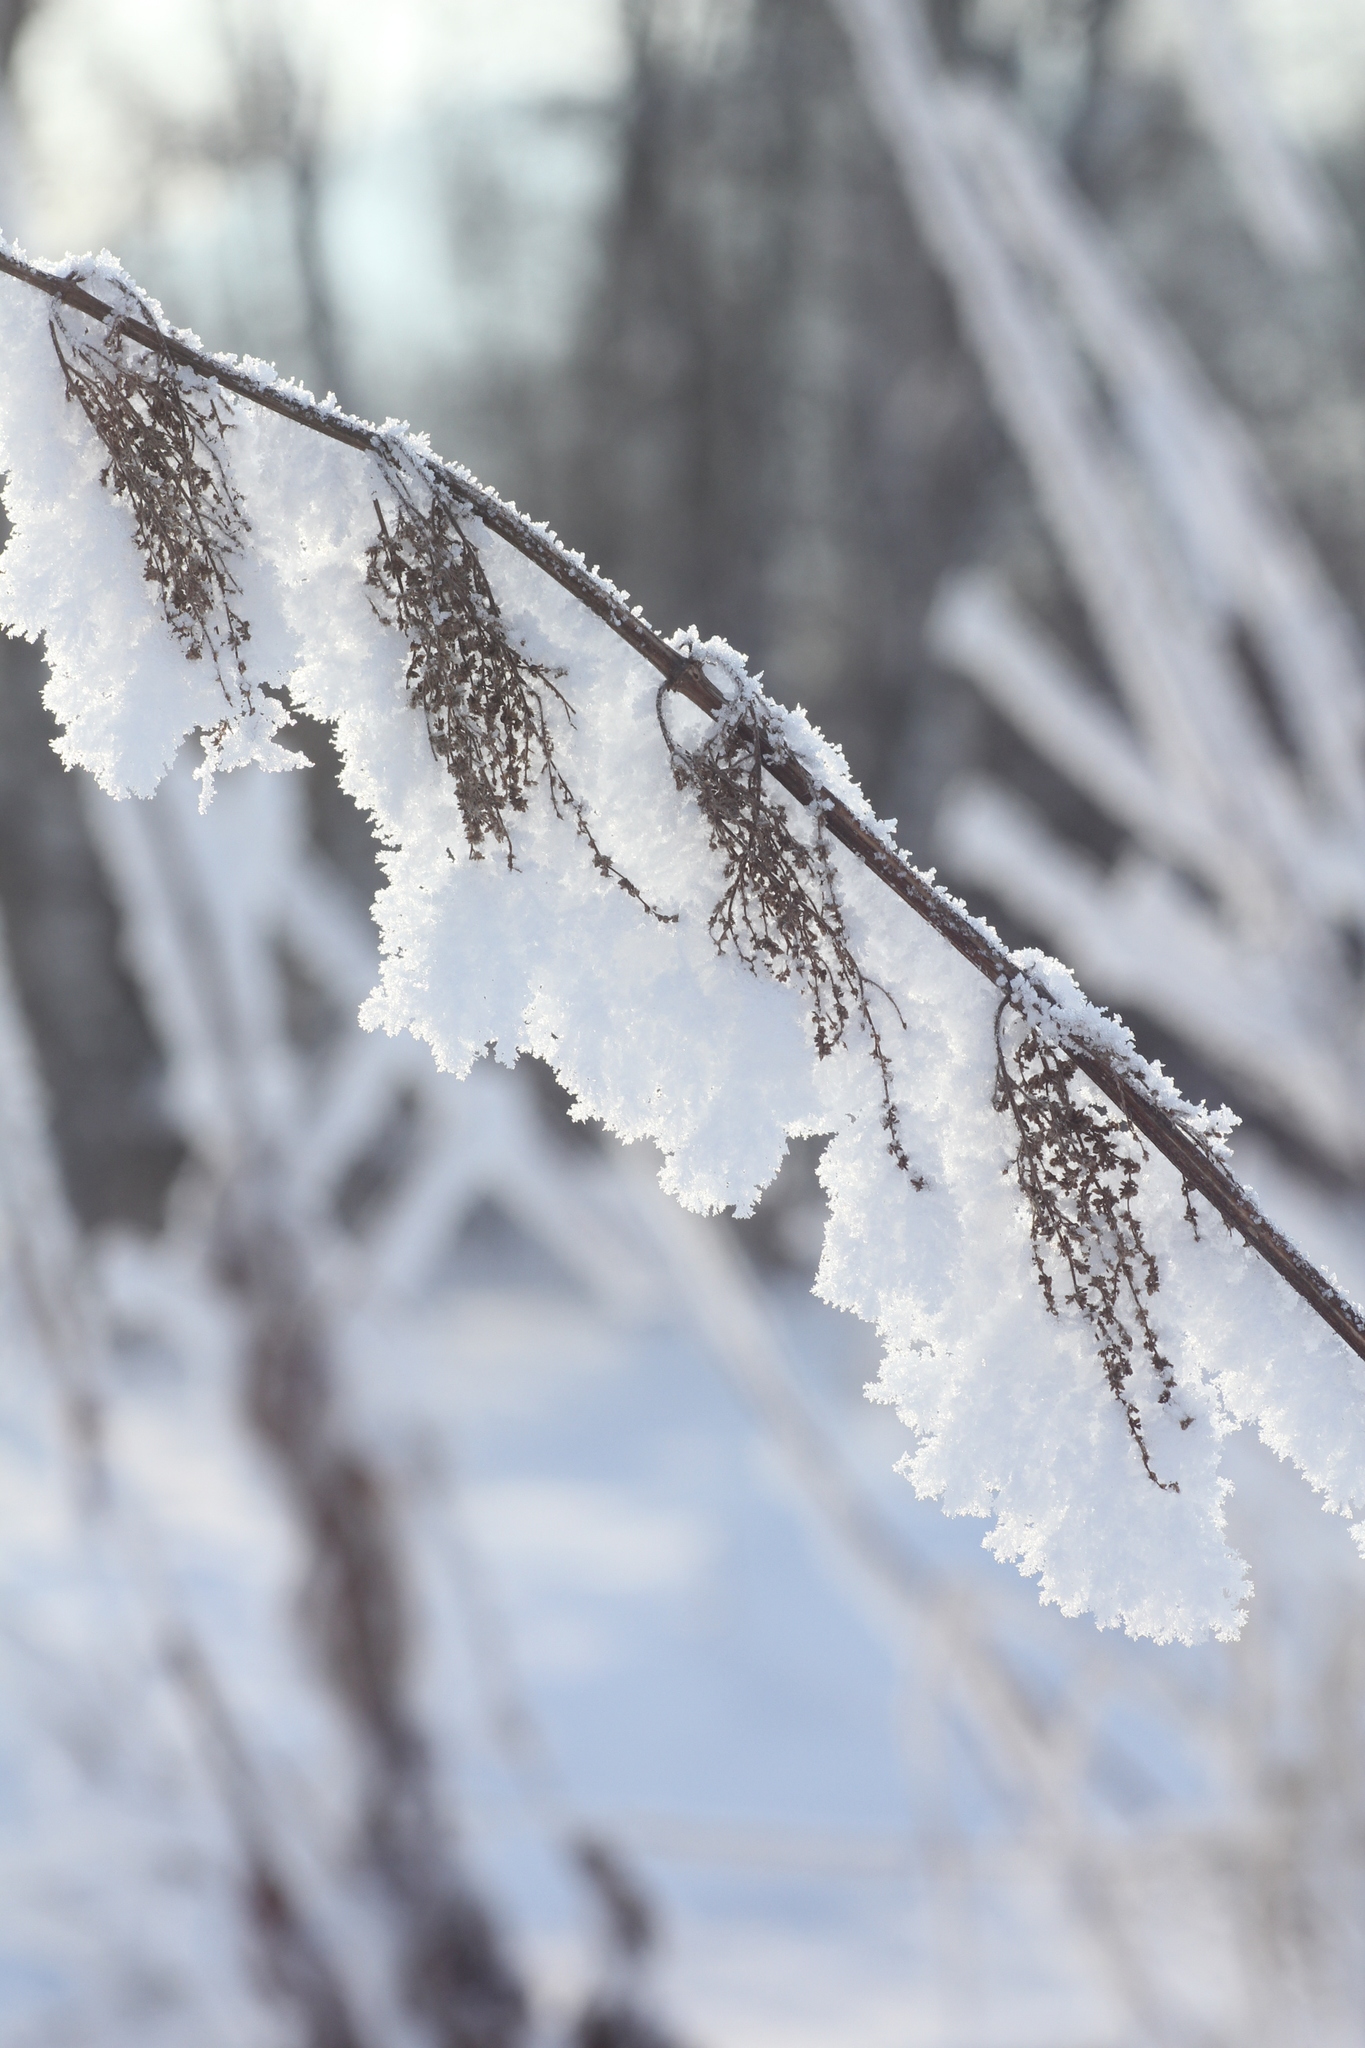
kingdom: Plantae
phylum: Tracheophyta
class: Magnoliopsida
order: Rosales
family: Urticaceae
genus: Urtica
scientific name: Urtica dioica
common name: Common nettle
